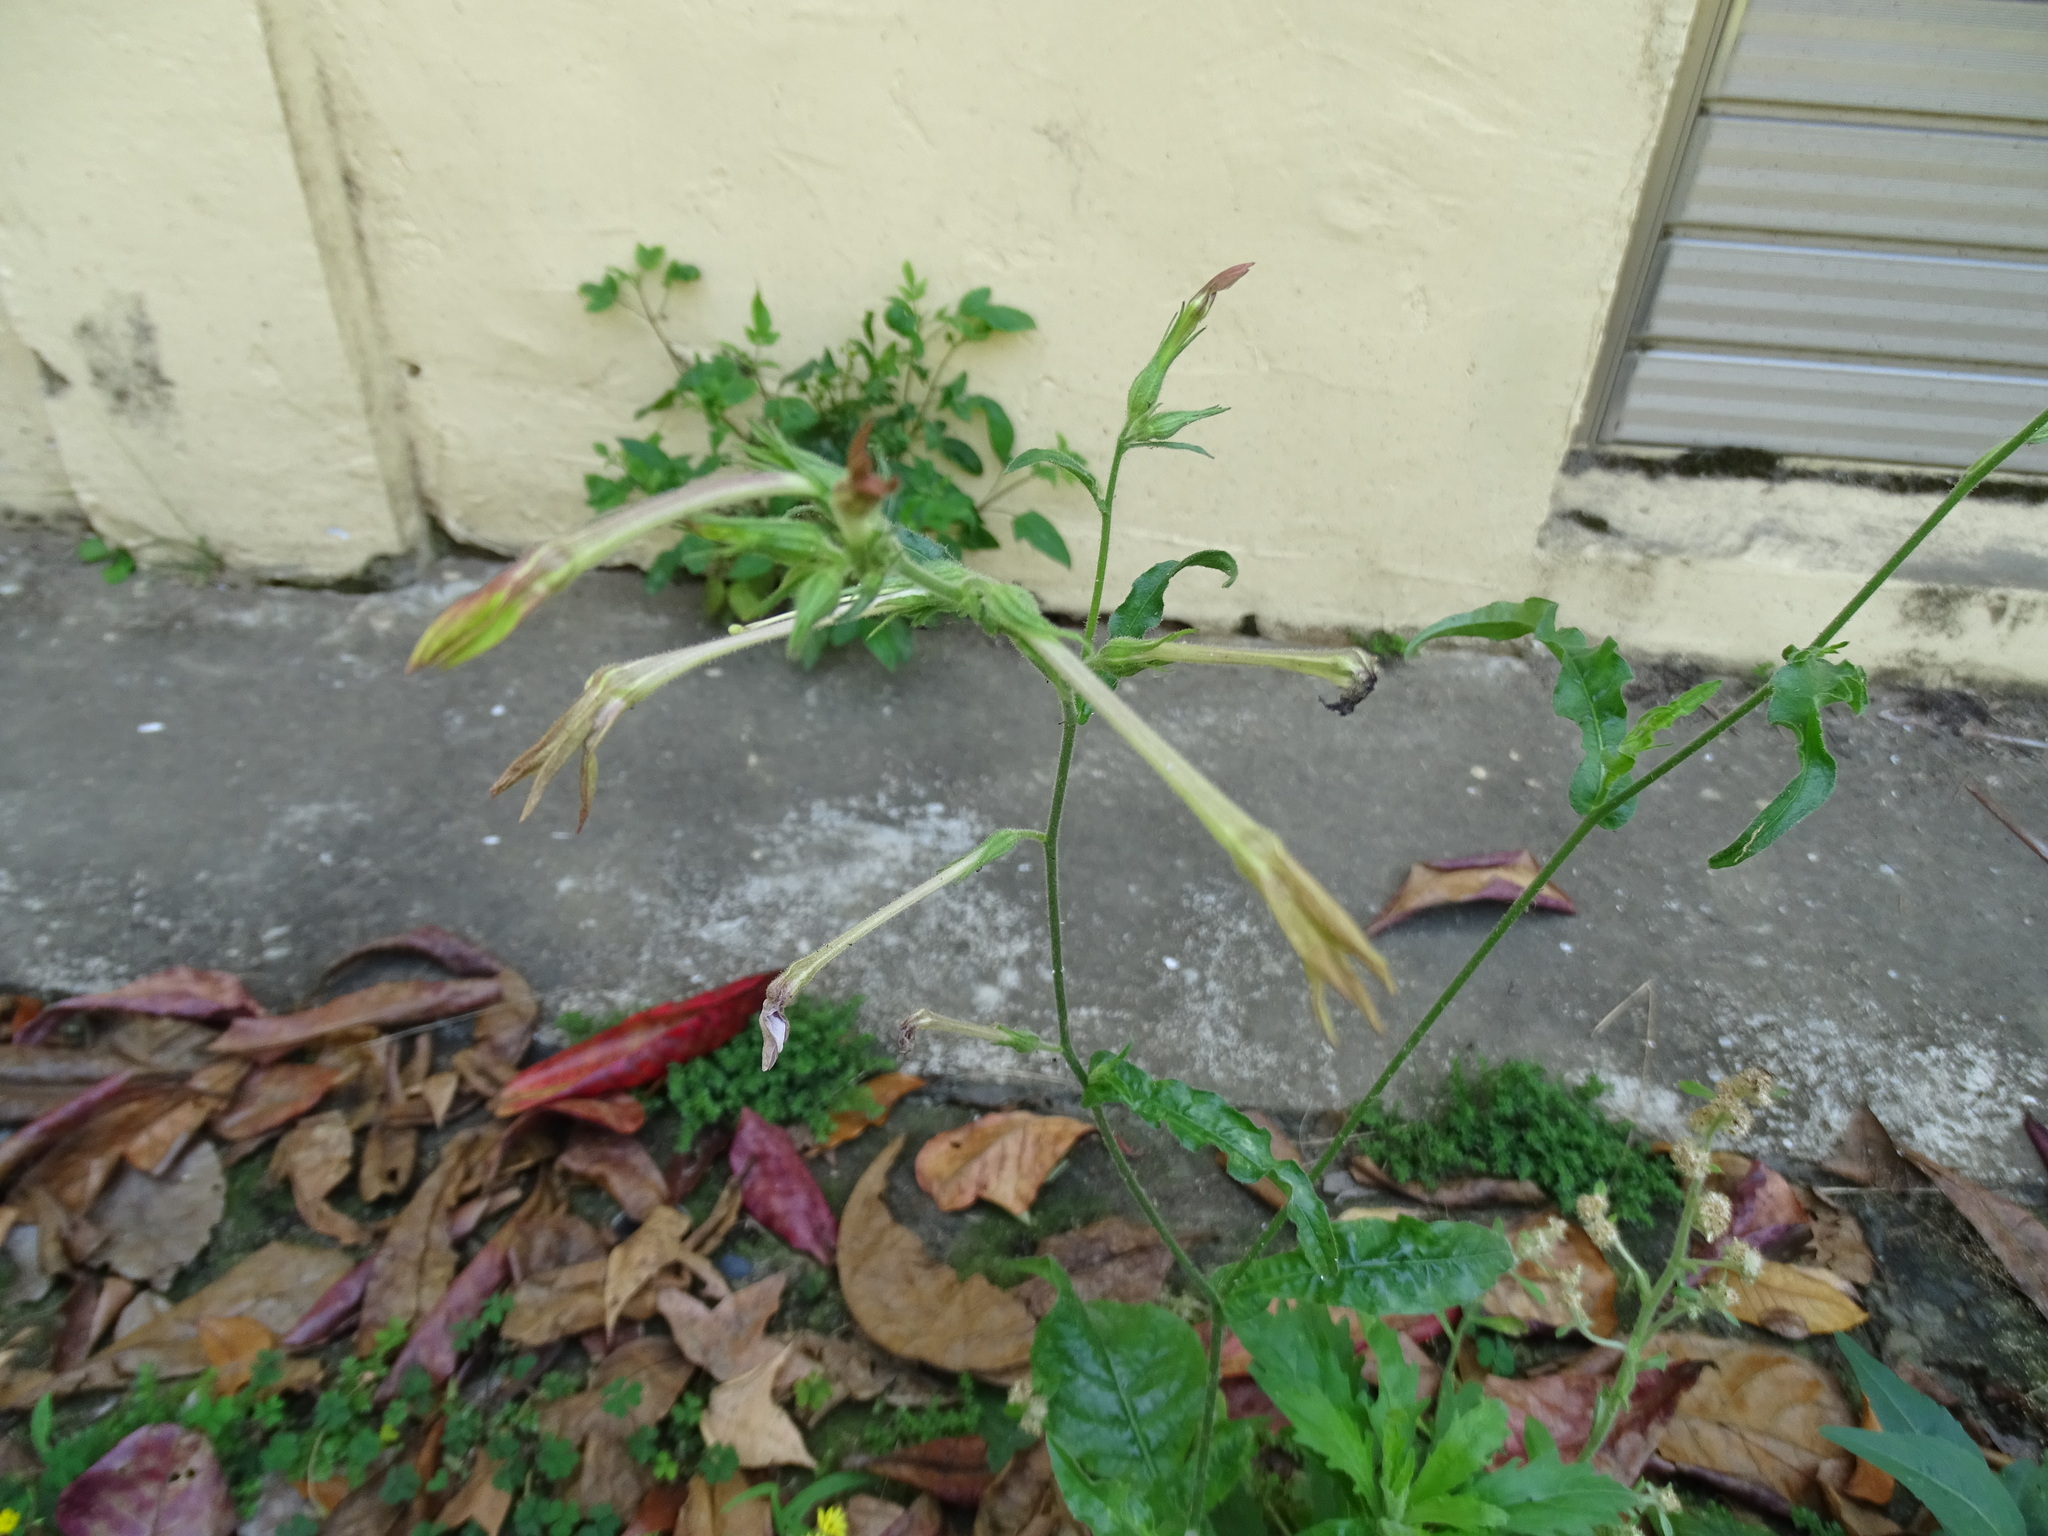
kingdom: Plantae
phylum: Tracheophyta
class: Magnoliopsida
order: Solanales
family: Solanaceae
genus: Nicotiana
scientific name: Nicotiana plumbaginifolia
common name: Tex-mex tobacco
